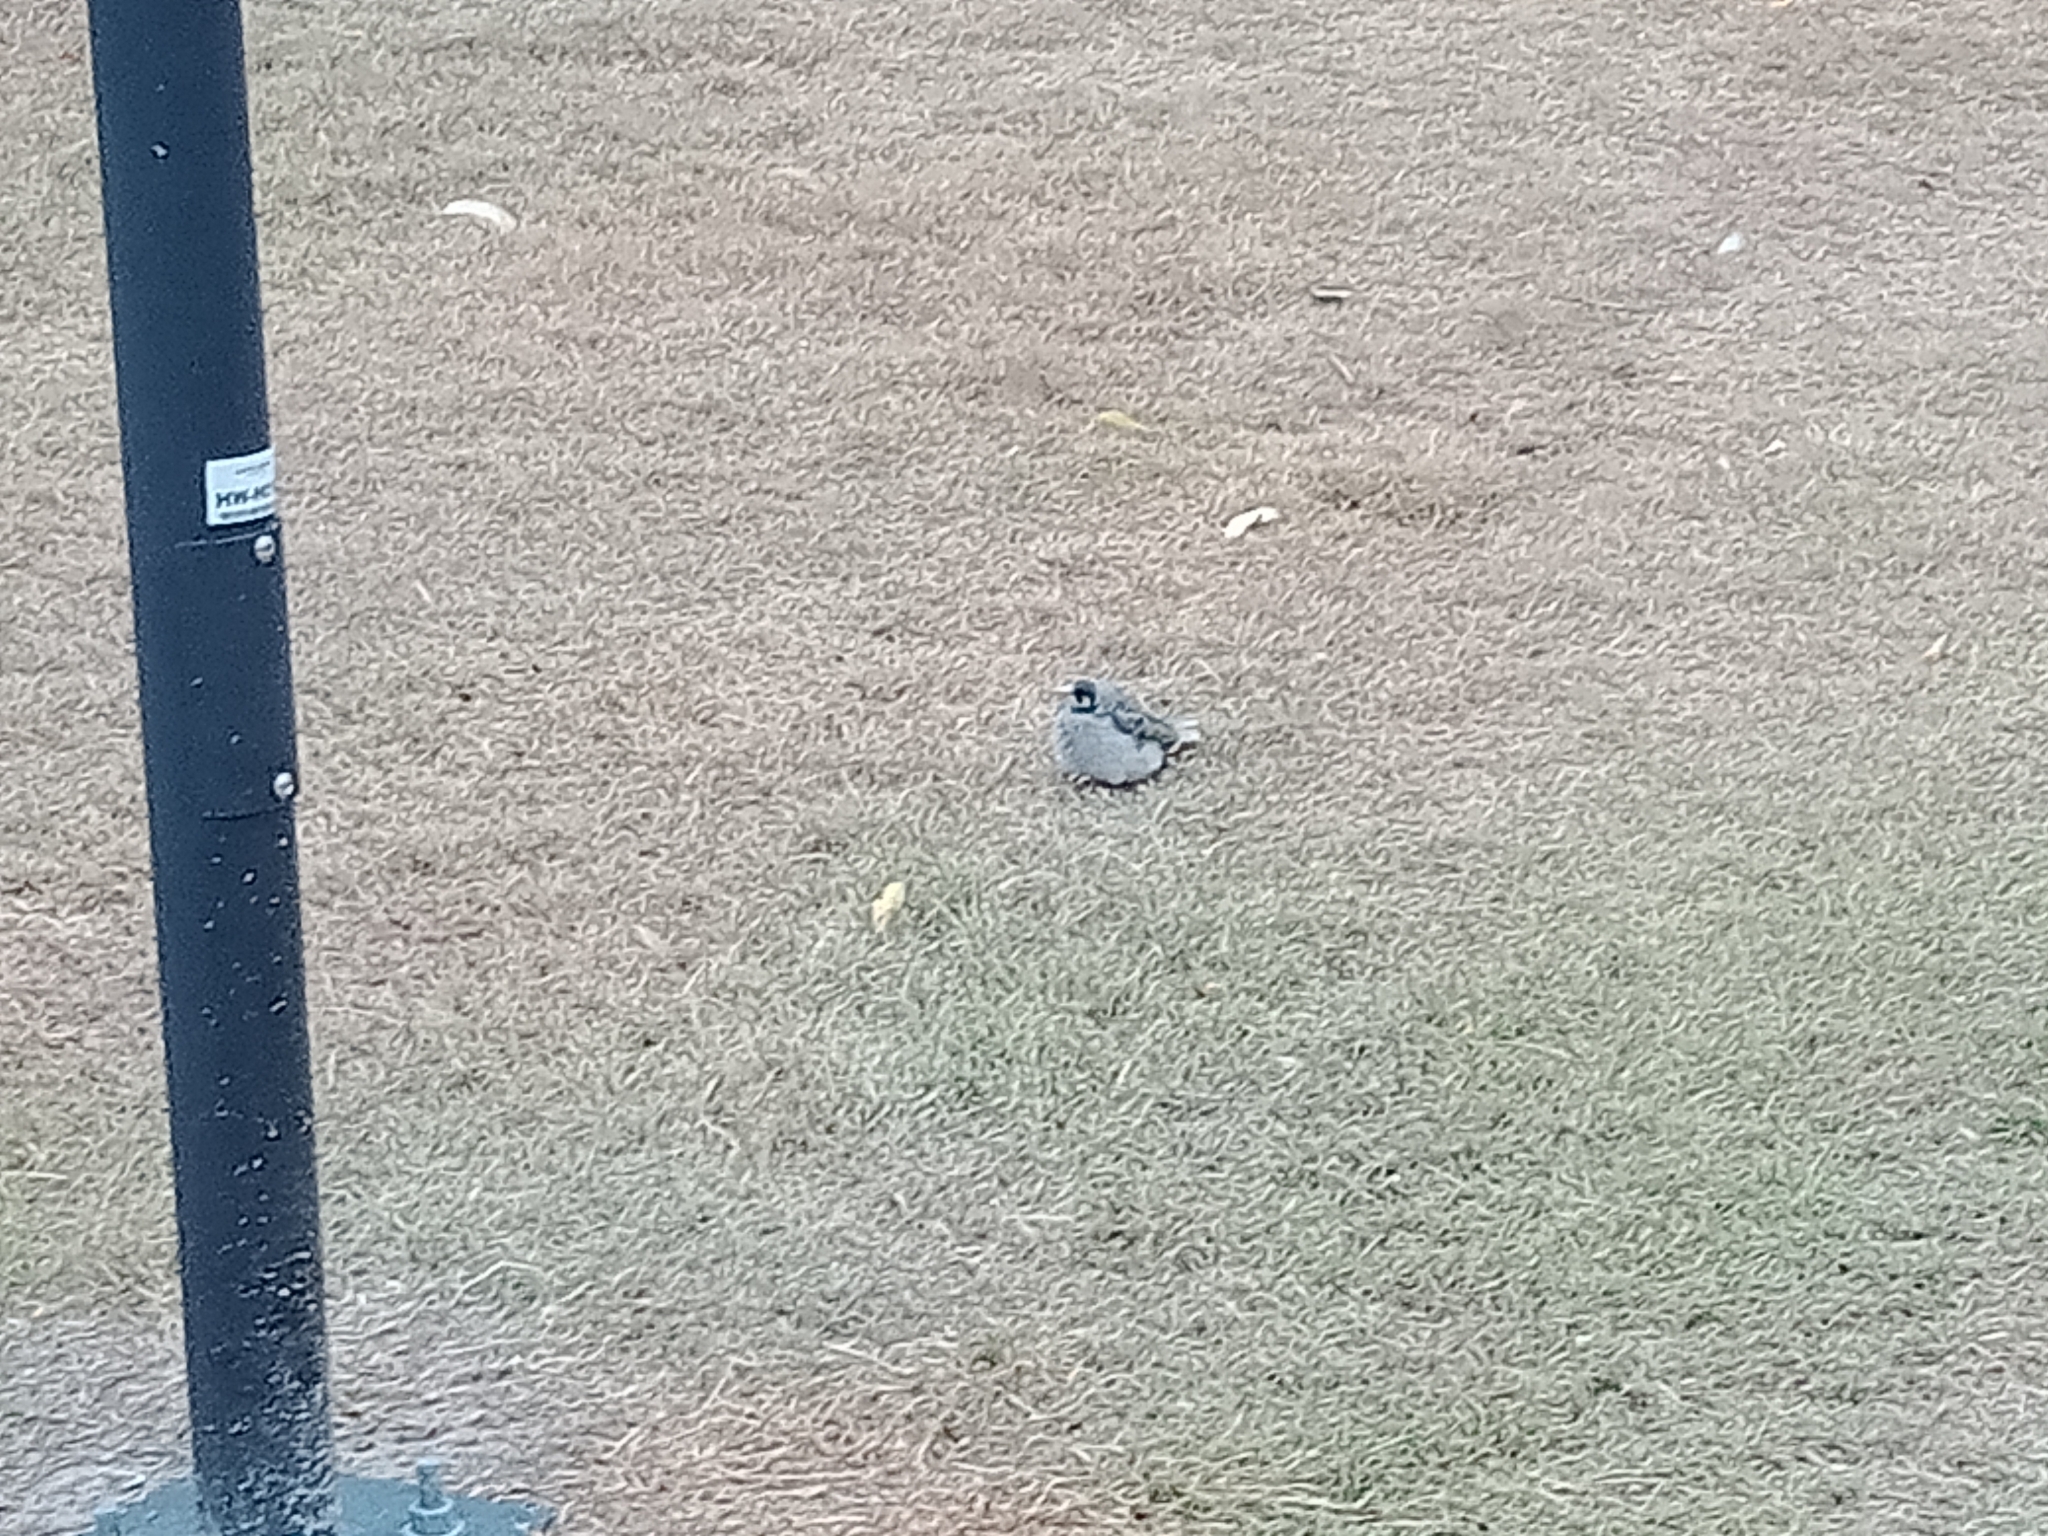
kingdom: Animalia
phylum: Chordata
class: Aves
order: Passeriformes
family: Meliphagidae
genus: Manorina
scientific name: Manorina melanocephala
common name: Noisy miner
